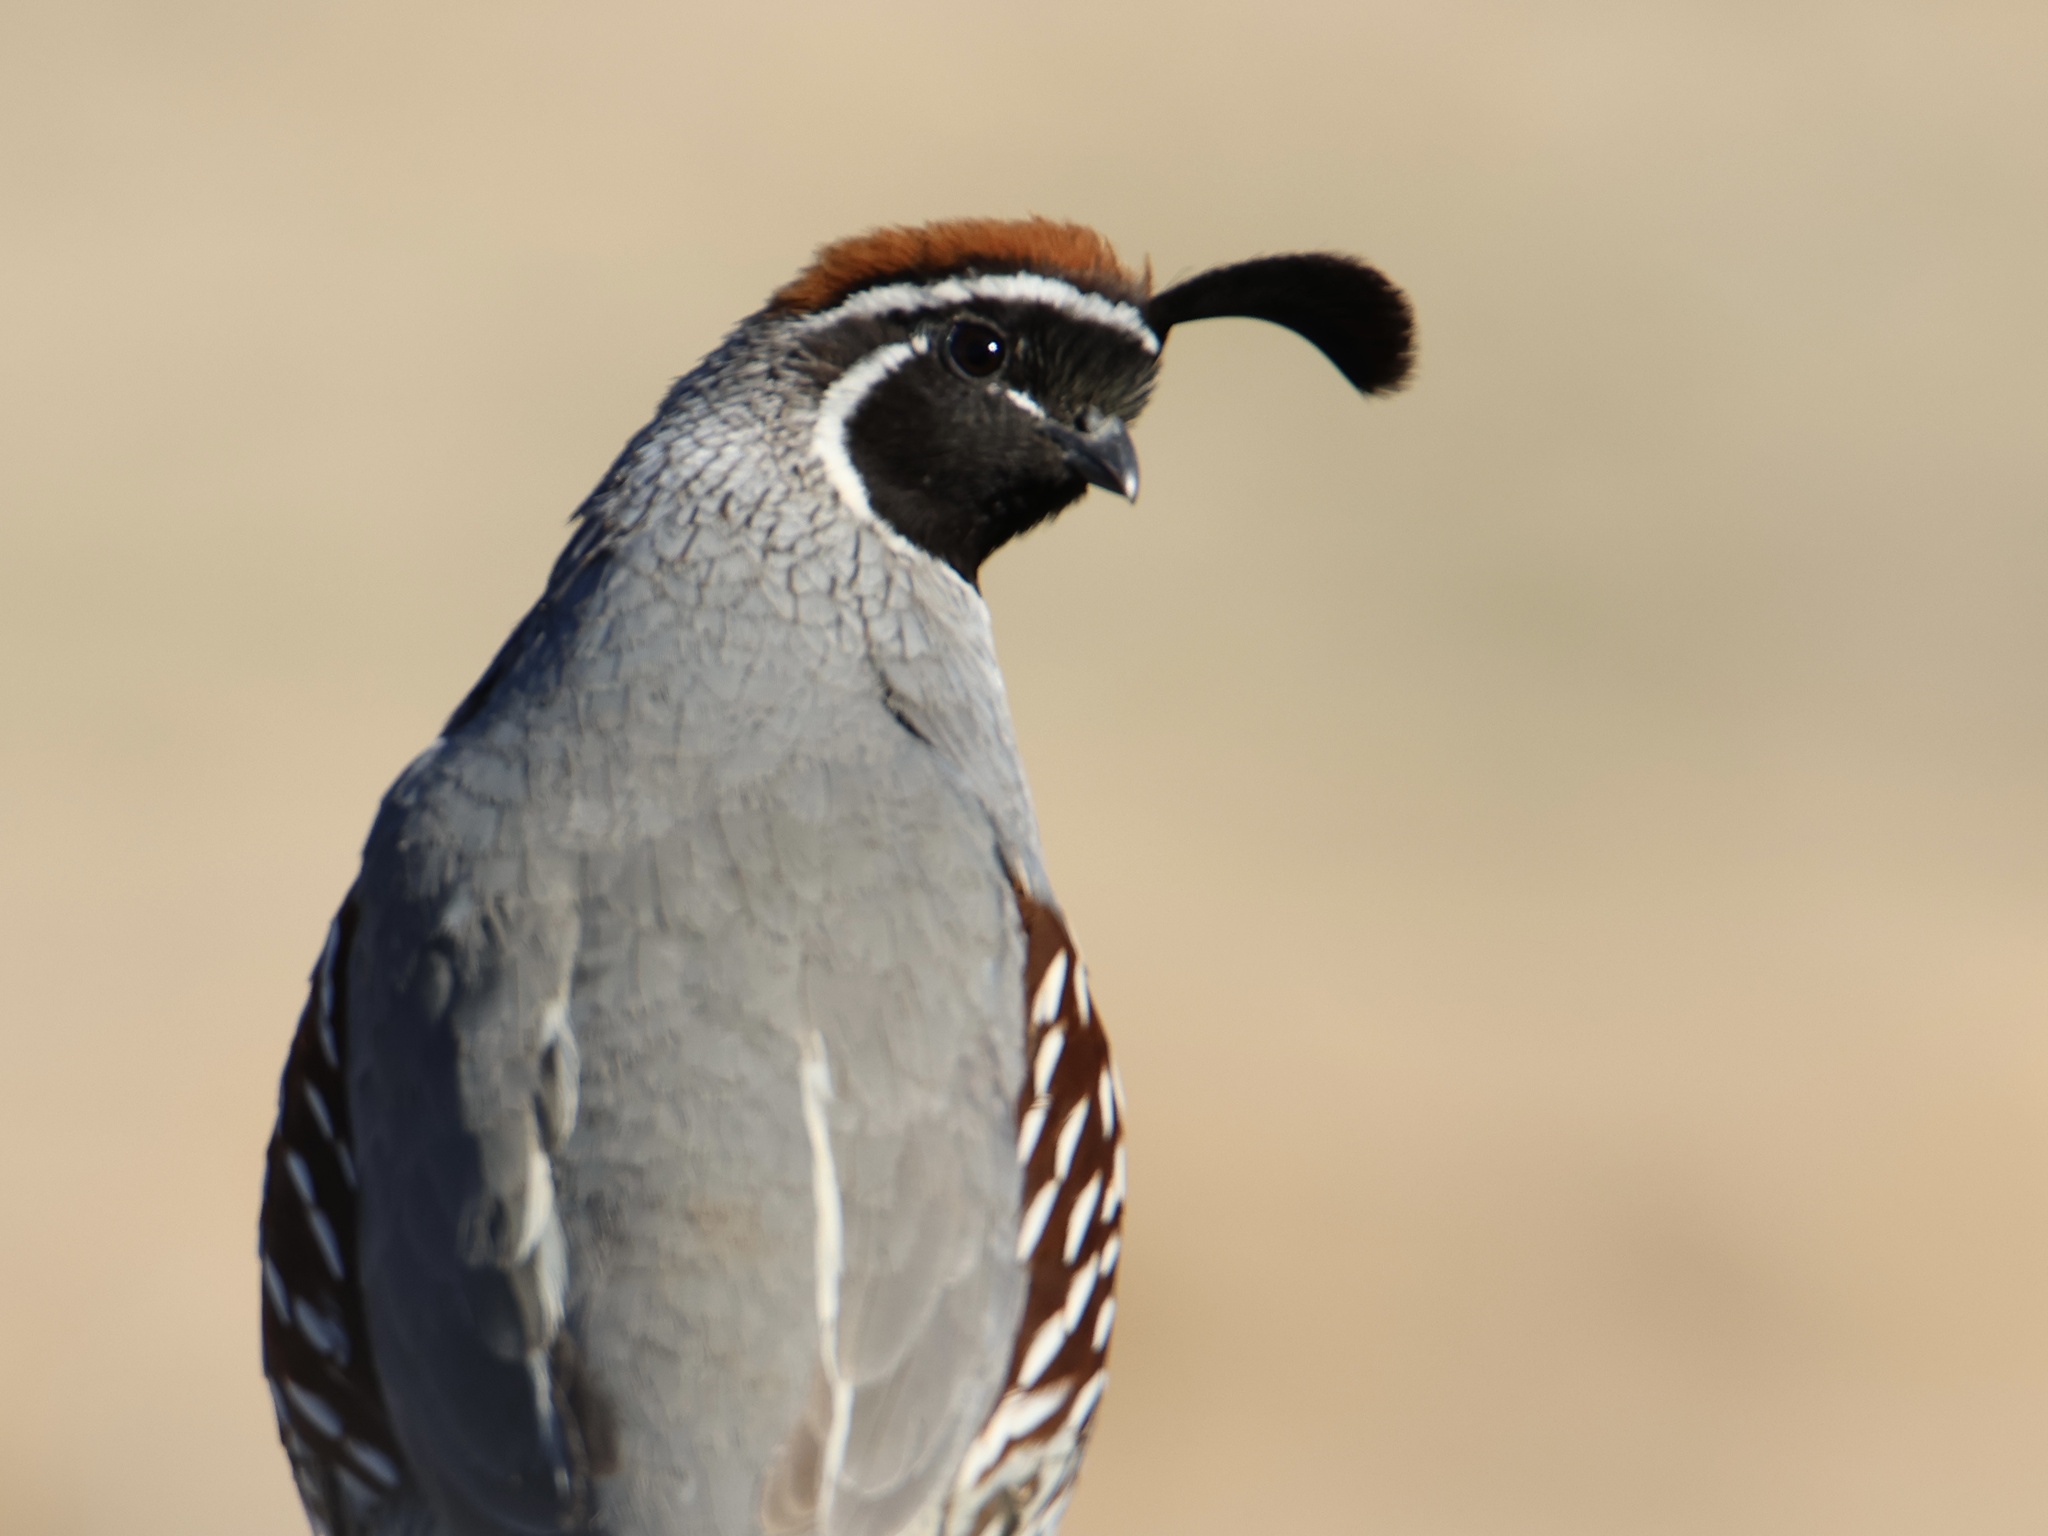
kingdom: Animalia
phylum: Chordata
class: Aves
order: Galliformes
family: Odontophoridae
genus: Callipepla
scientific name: Callipepla gambelii
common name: Gambel's quail
